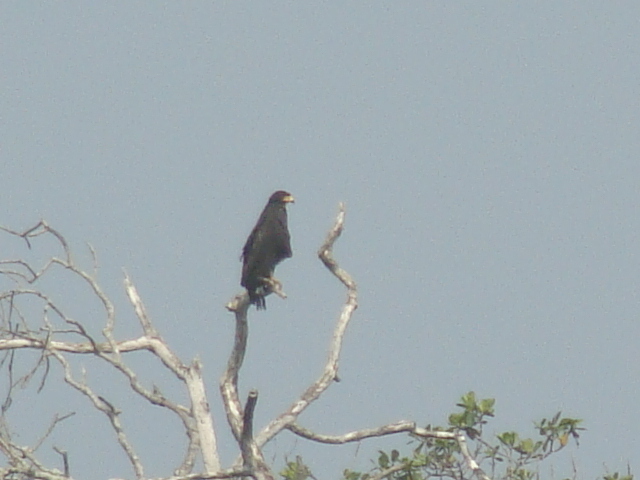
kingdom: Animalia
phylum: Chordata
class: Aves
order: Accipitriformes
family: Accipitridae
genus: Buteogallus
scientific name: Buteogallus anthracinus
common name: Common black hawk
